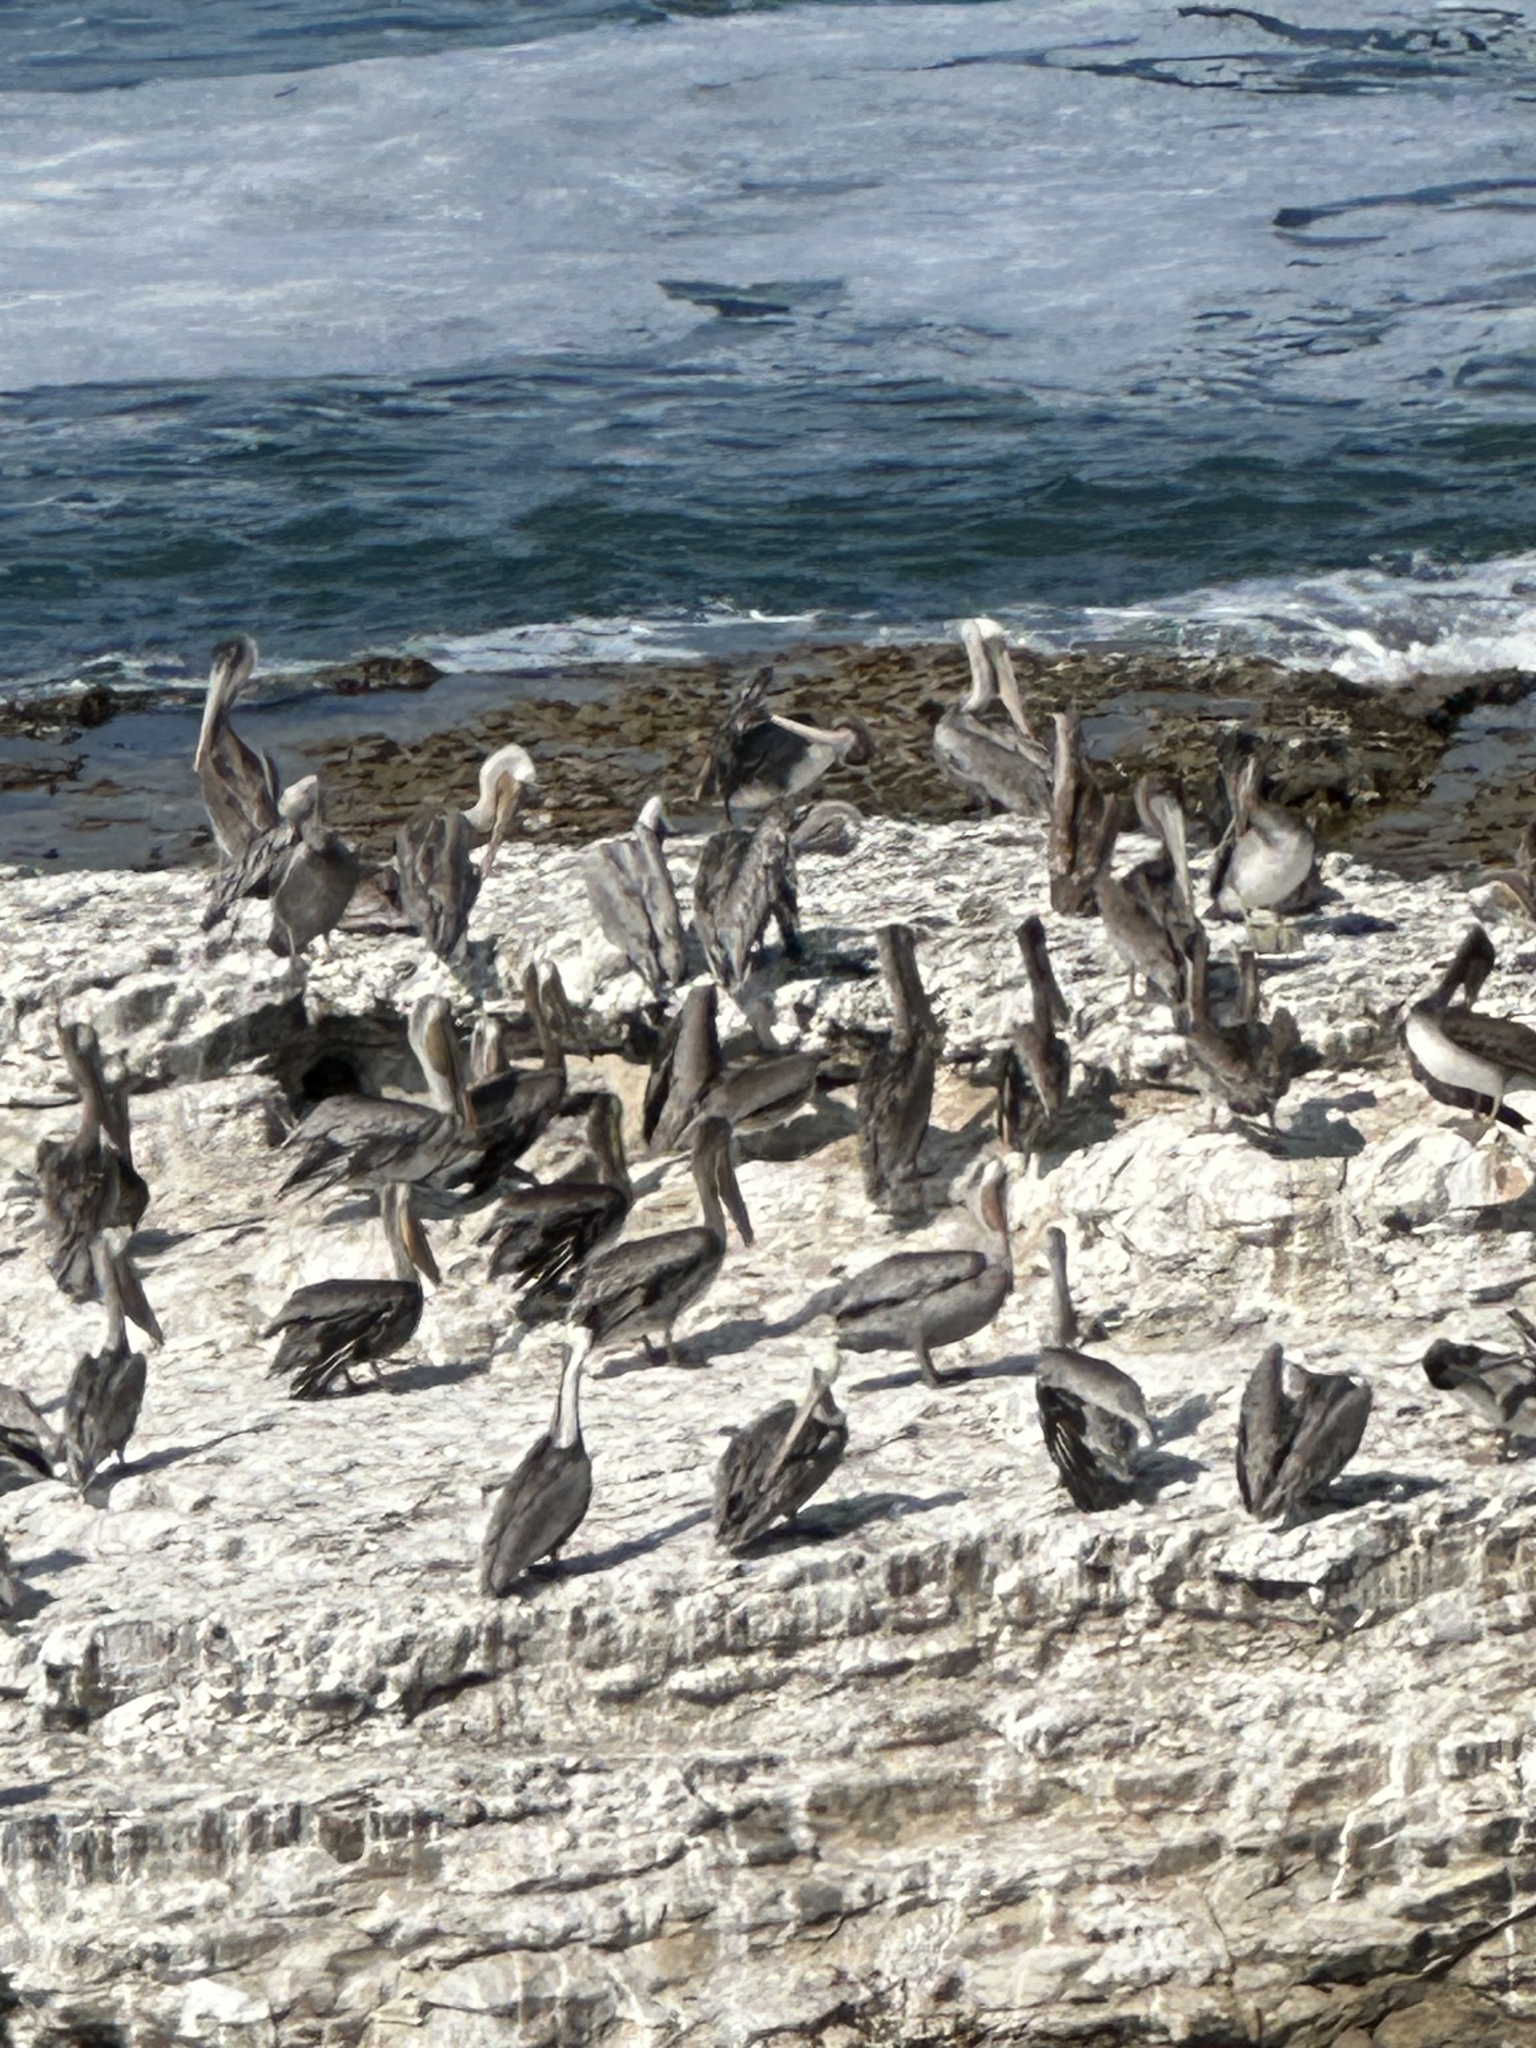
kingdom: Animalia
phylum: Chordata
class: Aves
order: Pelecaniformes
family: Pelecanidae
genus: Pelecanus
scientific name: Pelecanus occidentalis
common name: Brown pelican
